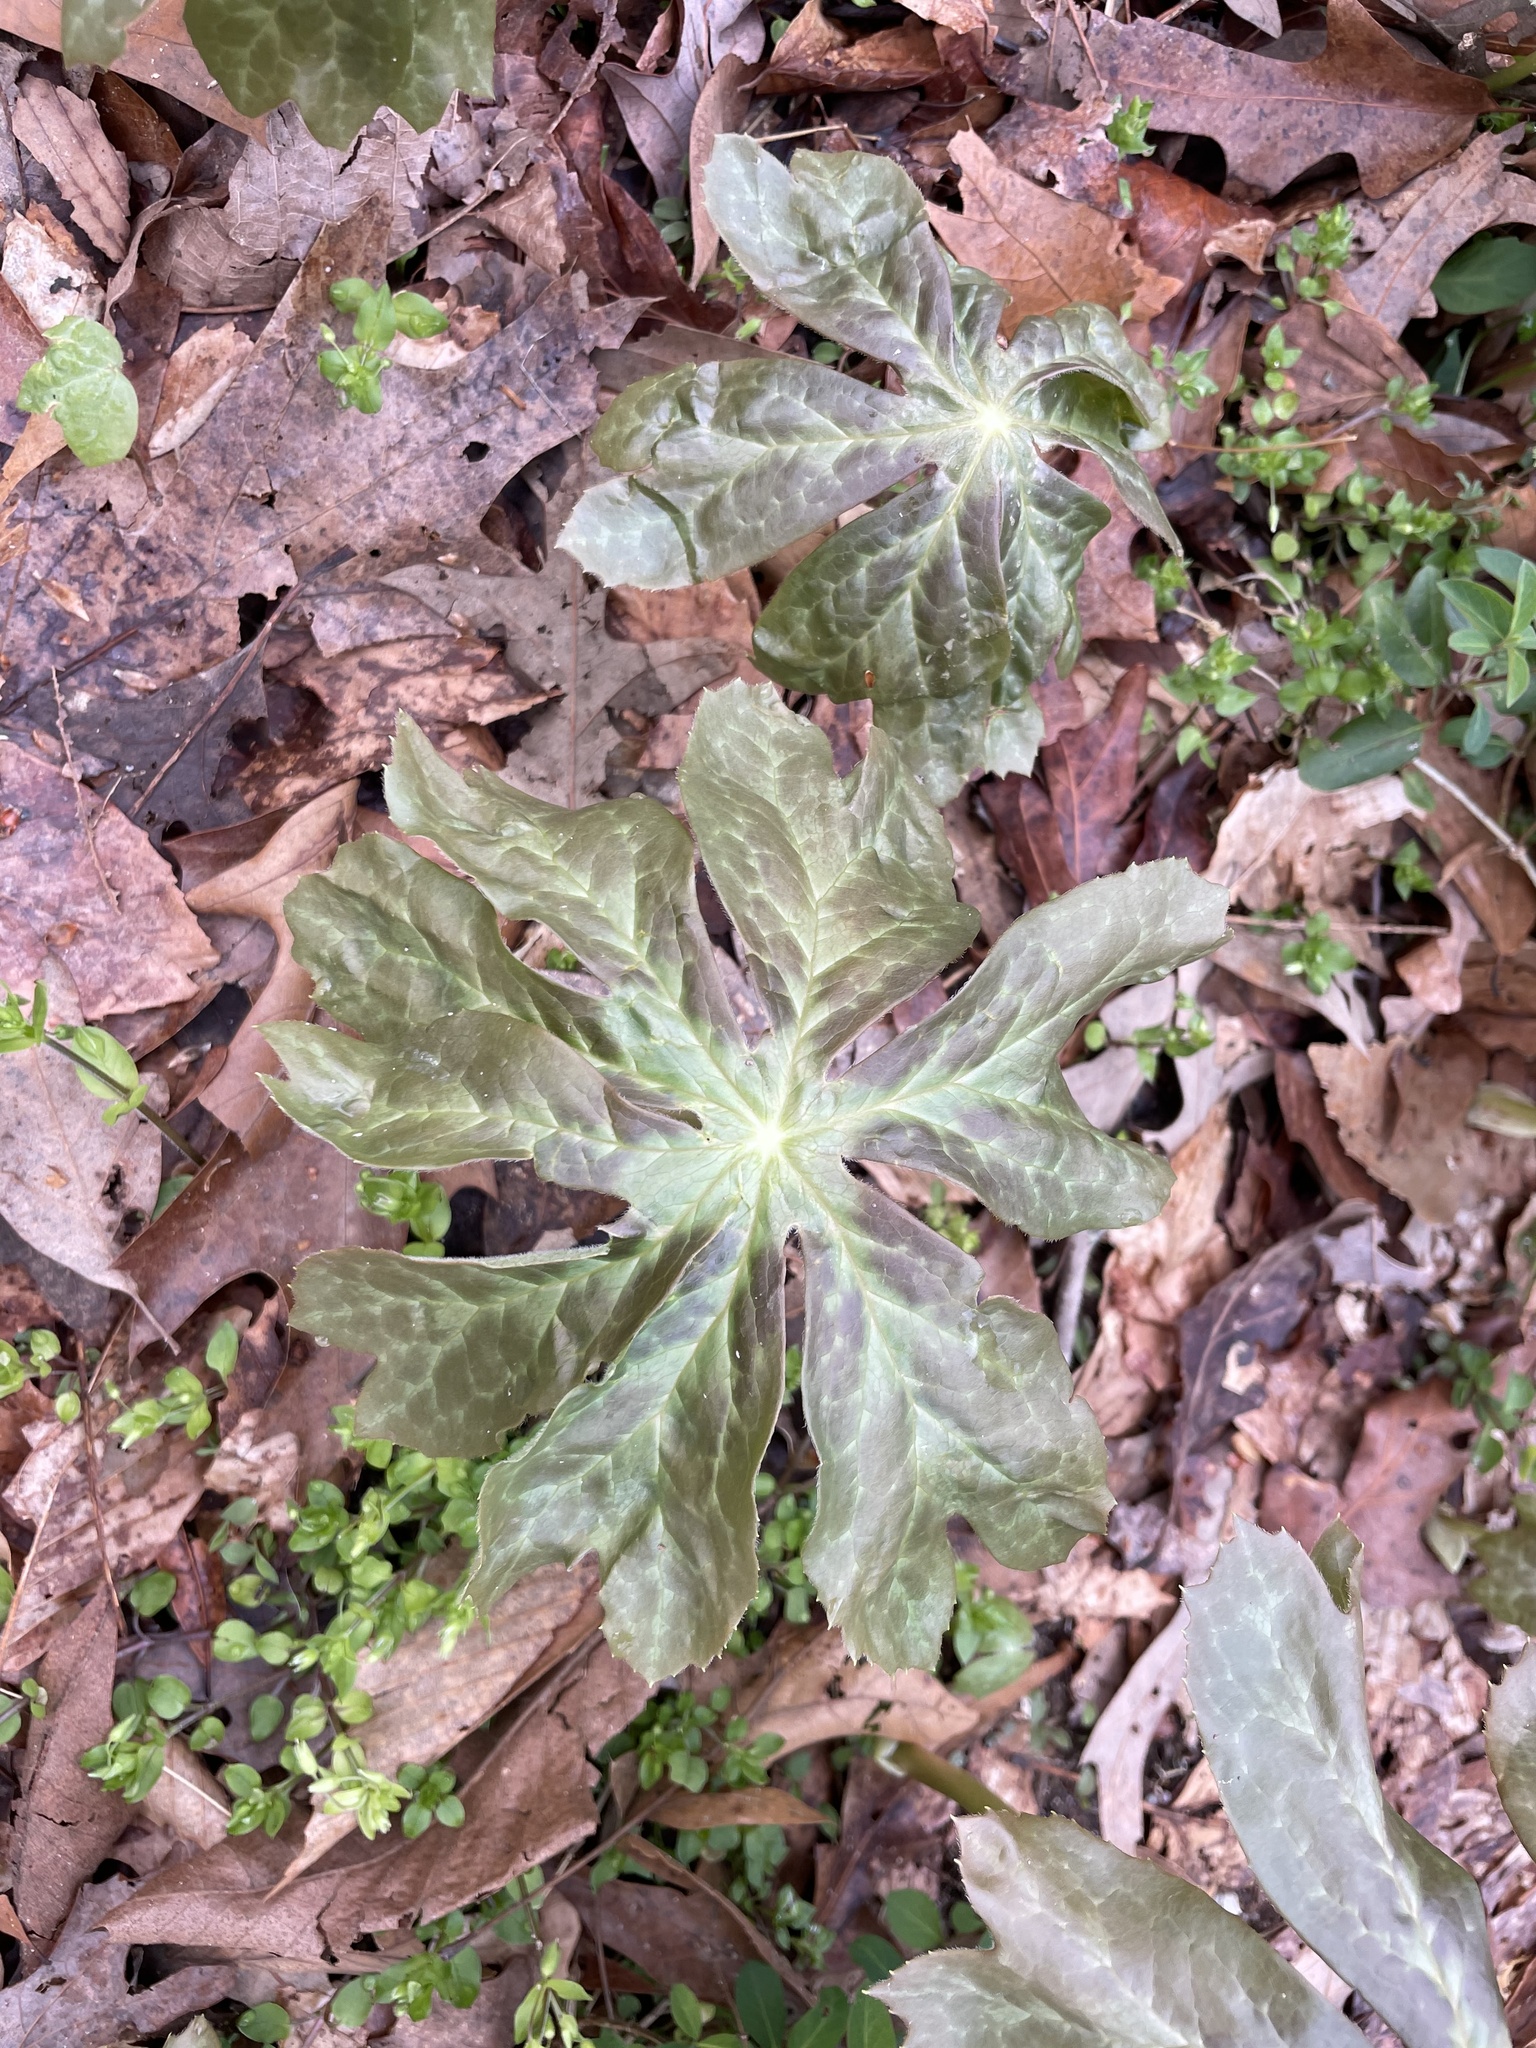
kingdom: Plantae
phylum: Tracheophyta
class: Magnoliopsida
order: Ranunculales
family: Berberidaceae
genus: Podophyllum
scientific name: Podophyllum peltatum
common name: Wild mandrake
